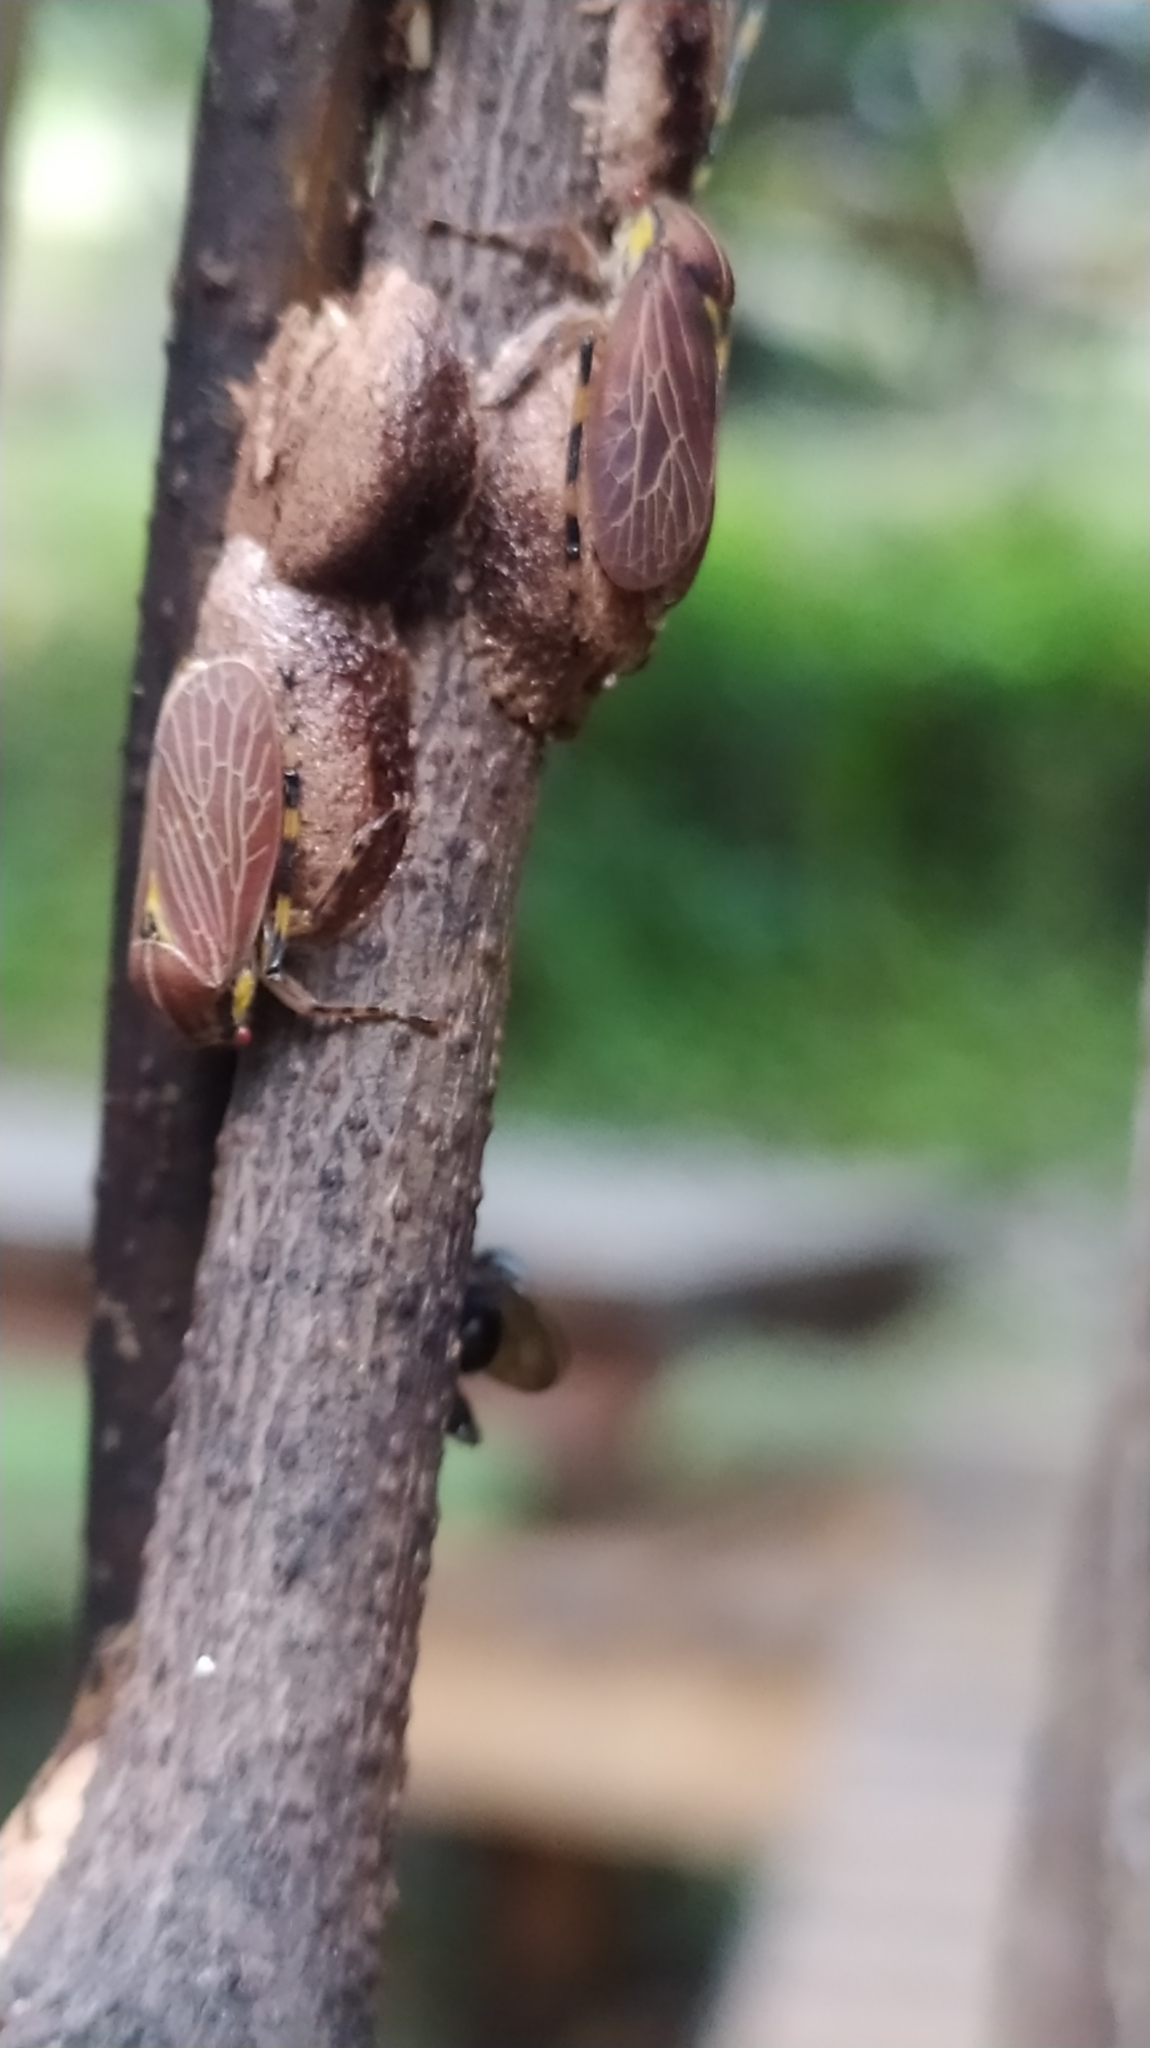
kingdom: Animalia
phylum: Arthropoda
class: Insecta
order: Hemiptera
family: Aetalionidae
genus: Aetalion
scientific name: Aetalion reticulatum
